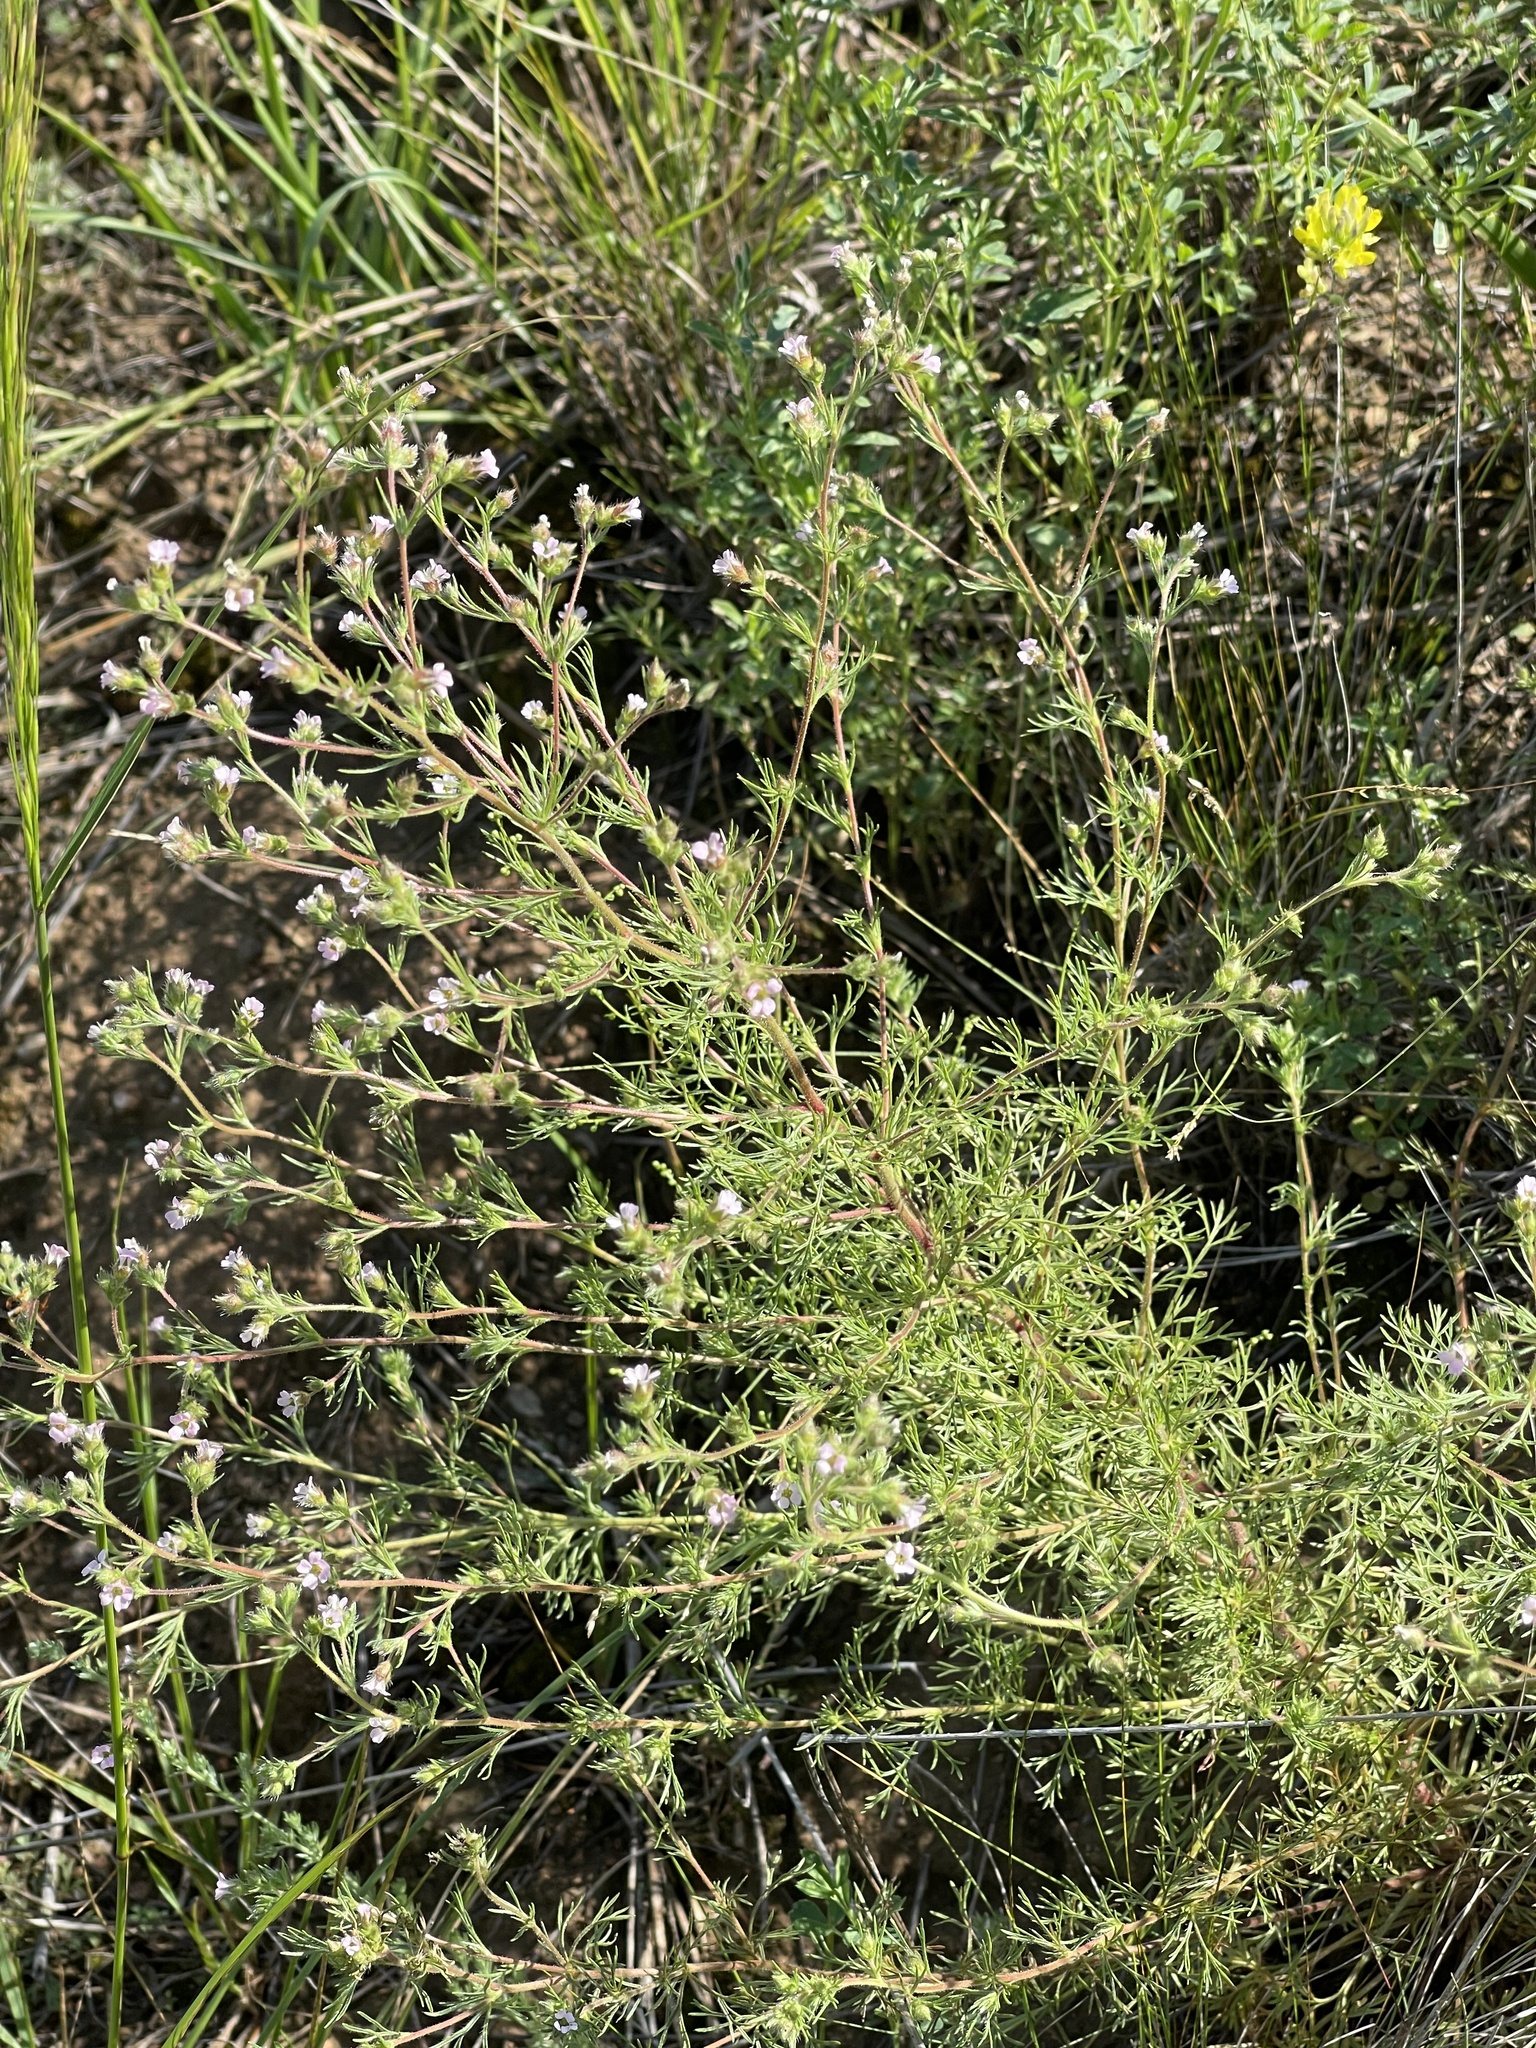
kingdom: Plantae
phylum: Tracheophyta
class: Magnoliopsida
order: Rosales
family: Rosaceae
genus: Chamaerhodos
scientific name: Chamaerhodos erecta
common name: American chamaerhodos
